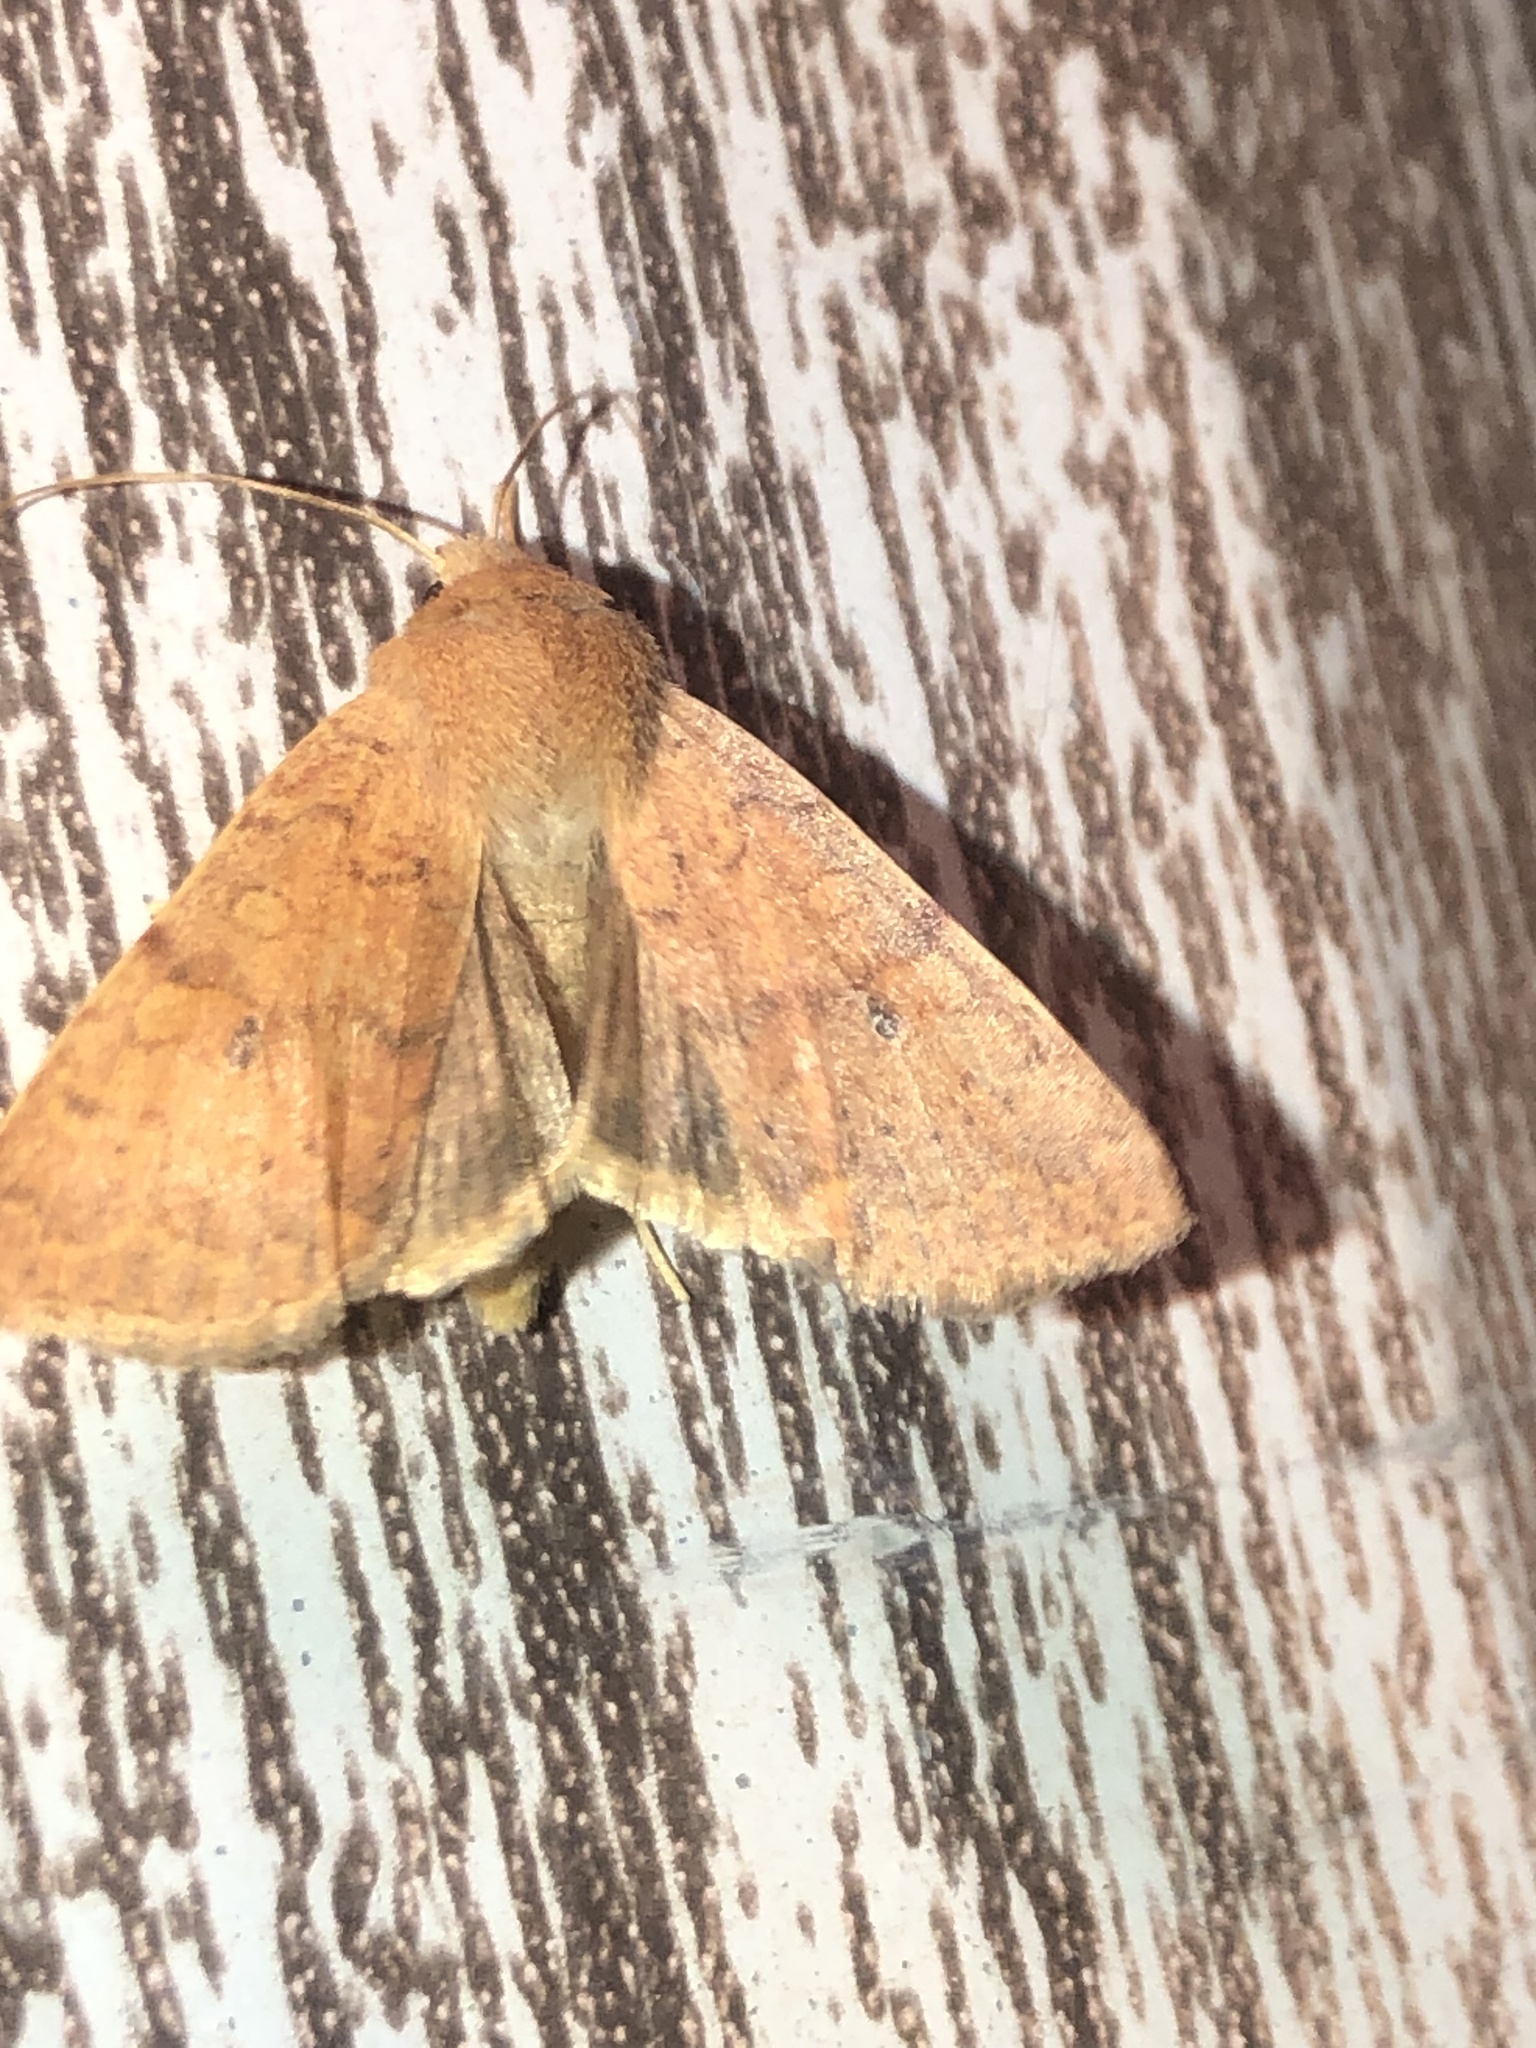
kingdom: Animalia
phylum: Arthropoda
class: Insecta
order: Lepidoptera
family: Noctuidae
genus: Agrochola
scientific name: Agrochola bicolorago
